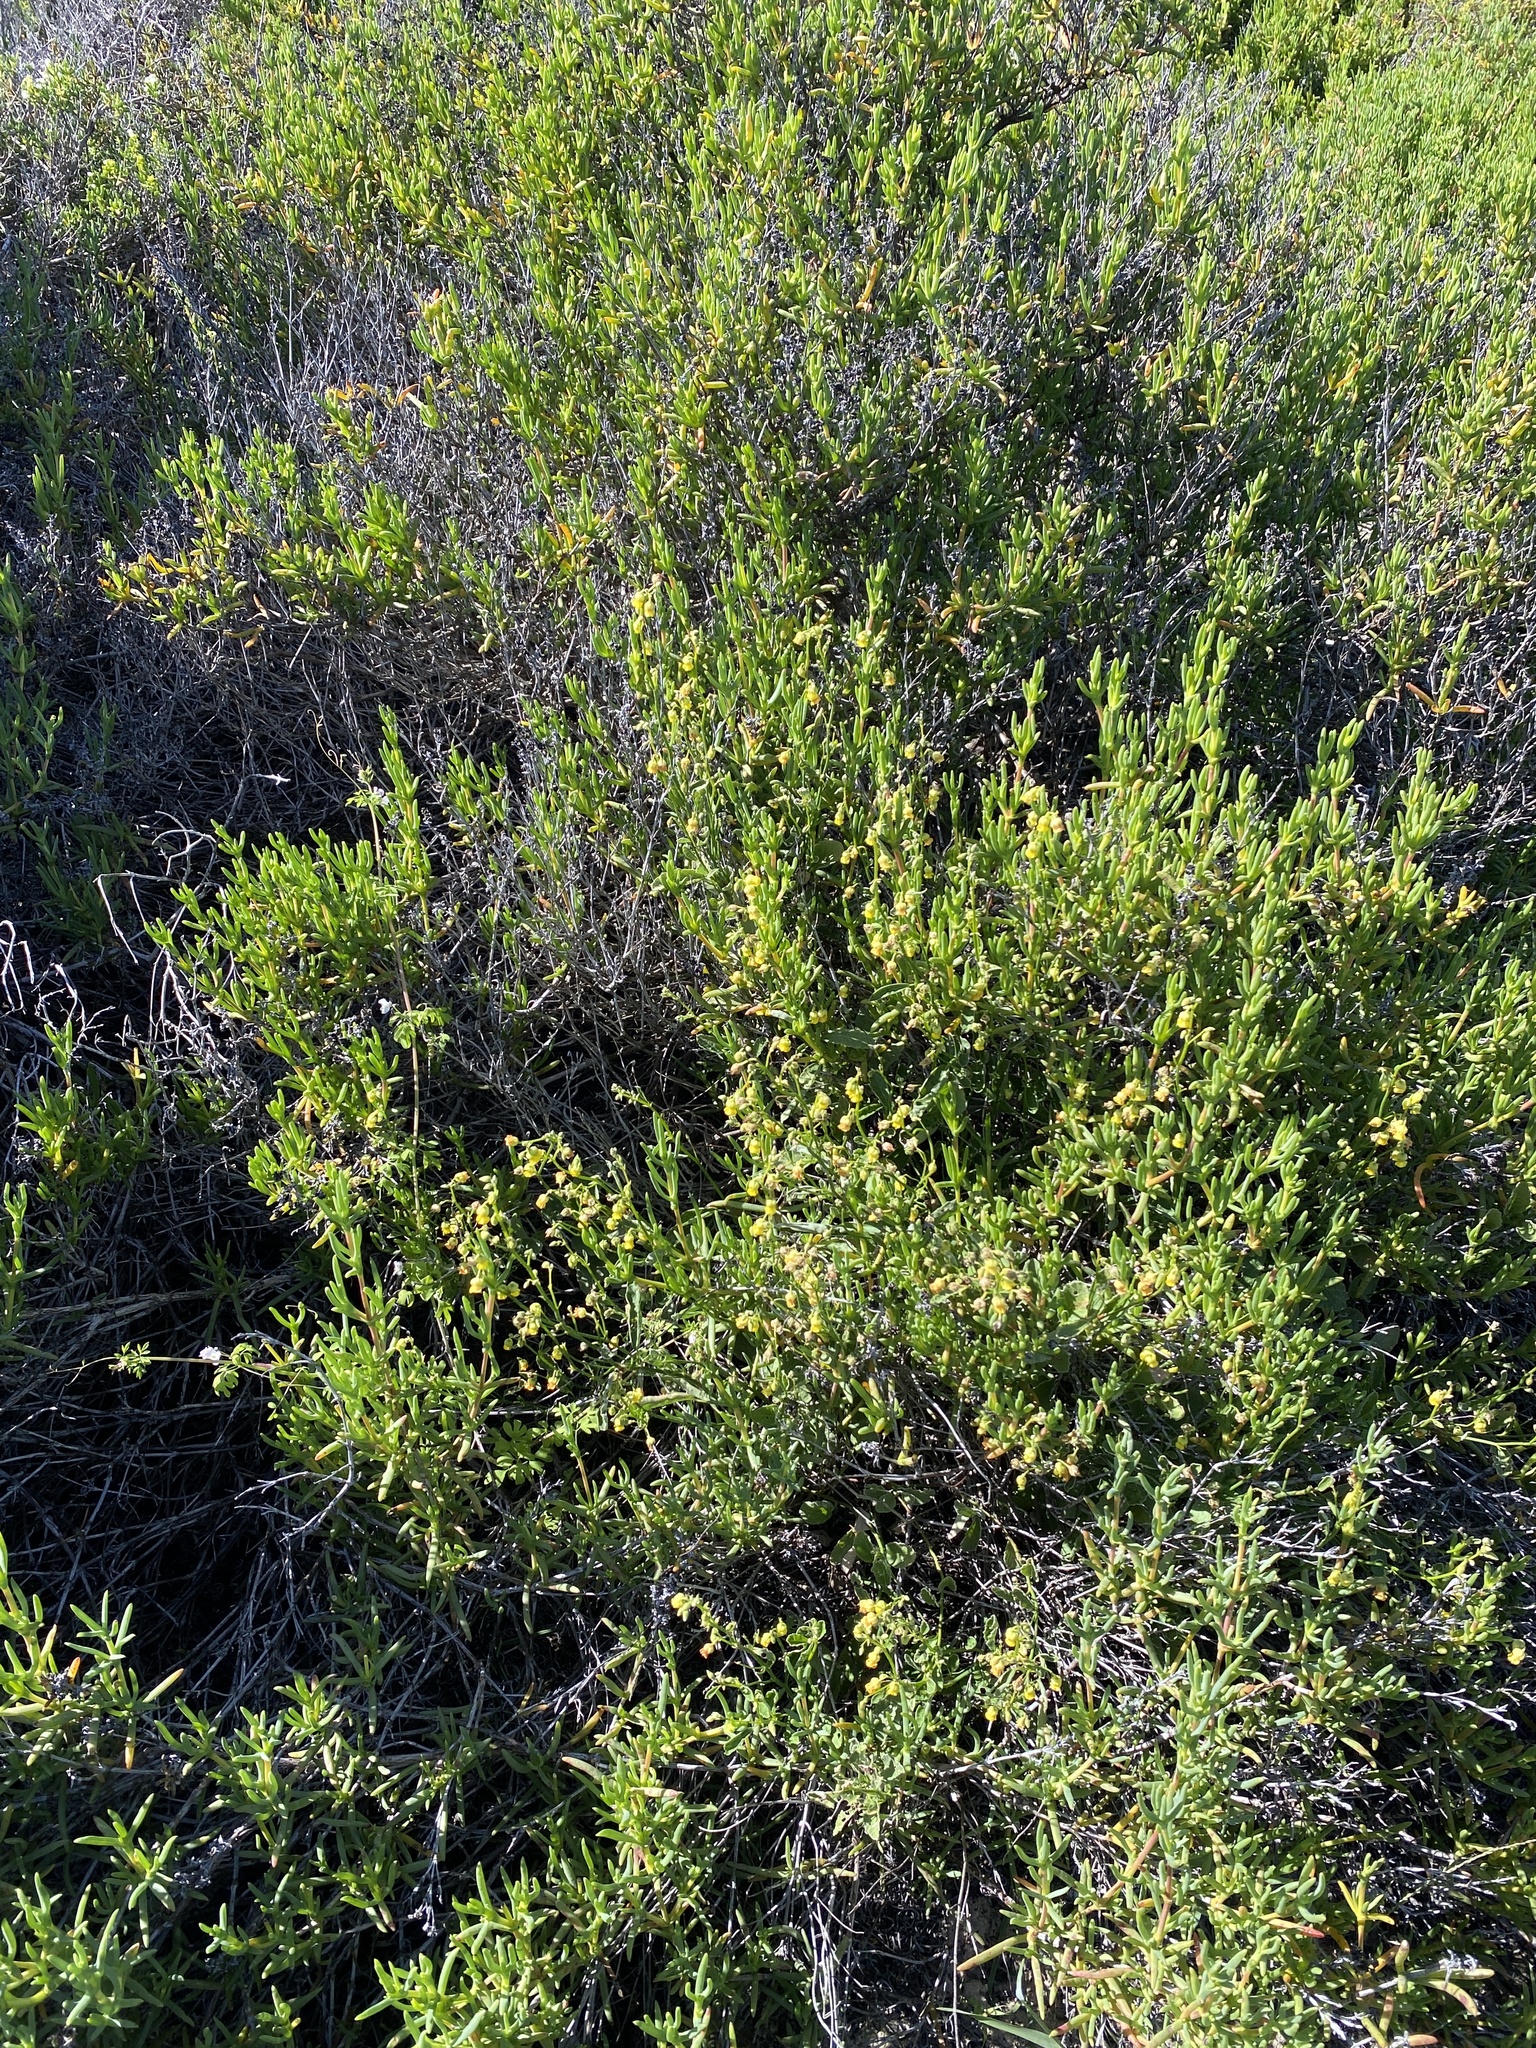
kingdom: Plantae
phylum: Tracheophyta
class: Magnoliopsida
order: Malvales
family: Malvaceae
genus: Hermannia
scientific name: Hermannia scordifolia
